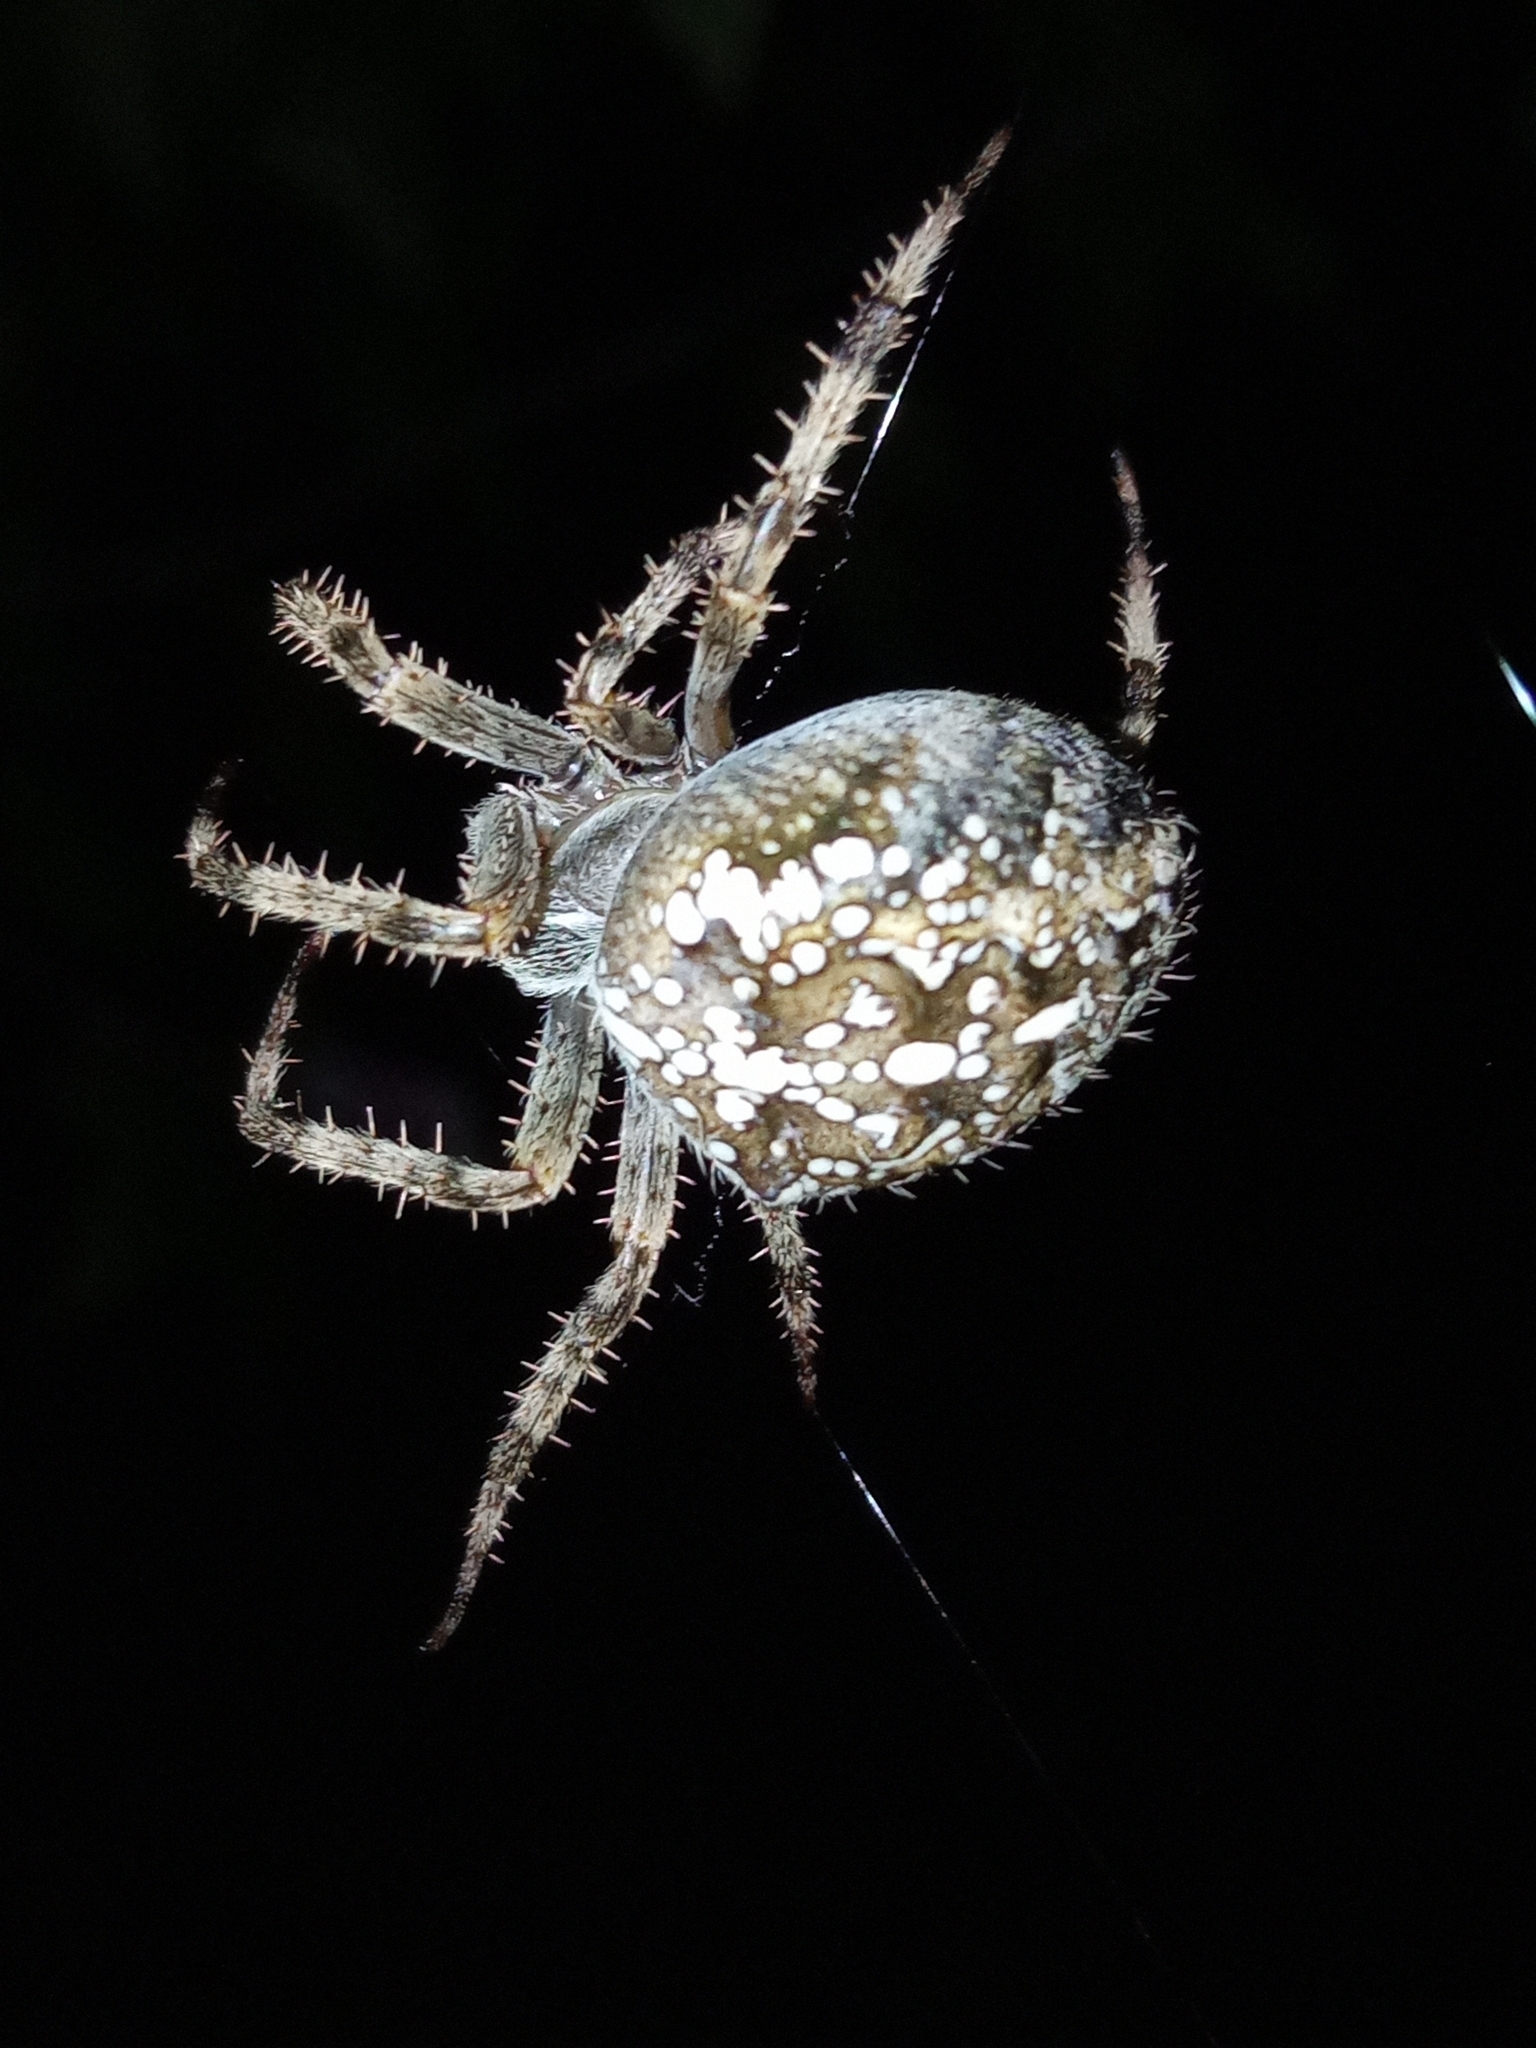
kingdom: Animalia
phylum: Arthropoda
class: Arachnida
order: Araneae
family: Araneidae
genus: Araneus
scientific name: Araneus diadematus
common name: Cross orbweaver
